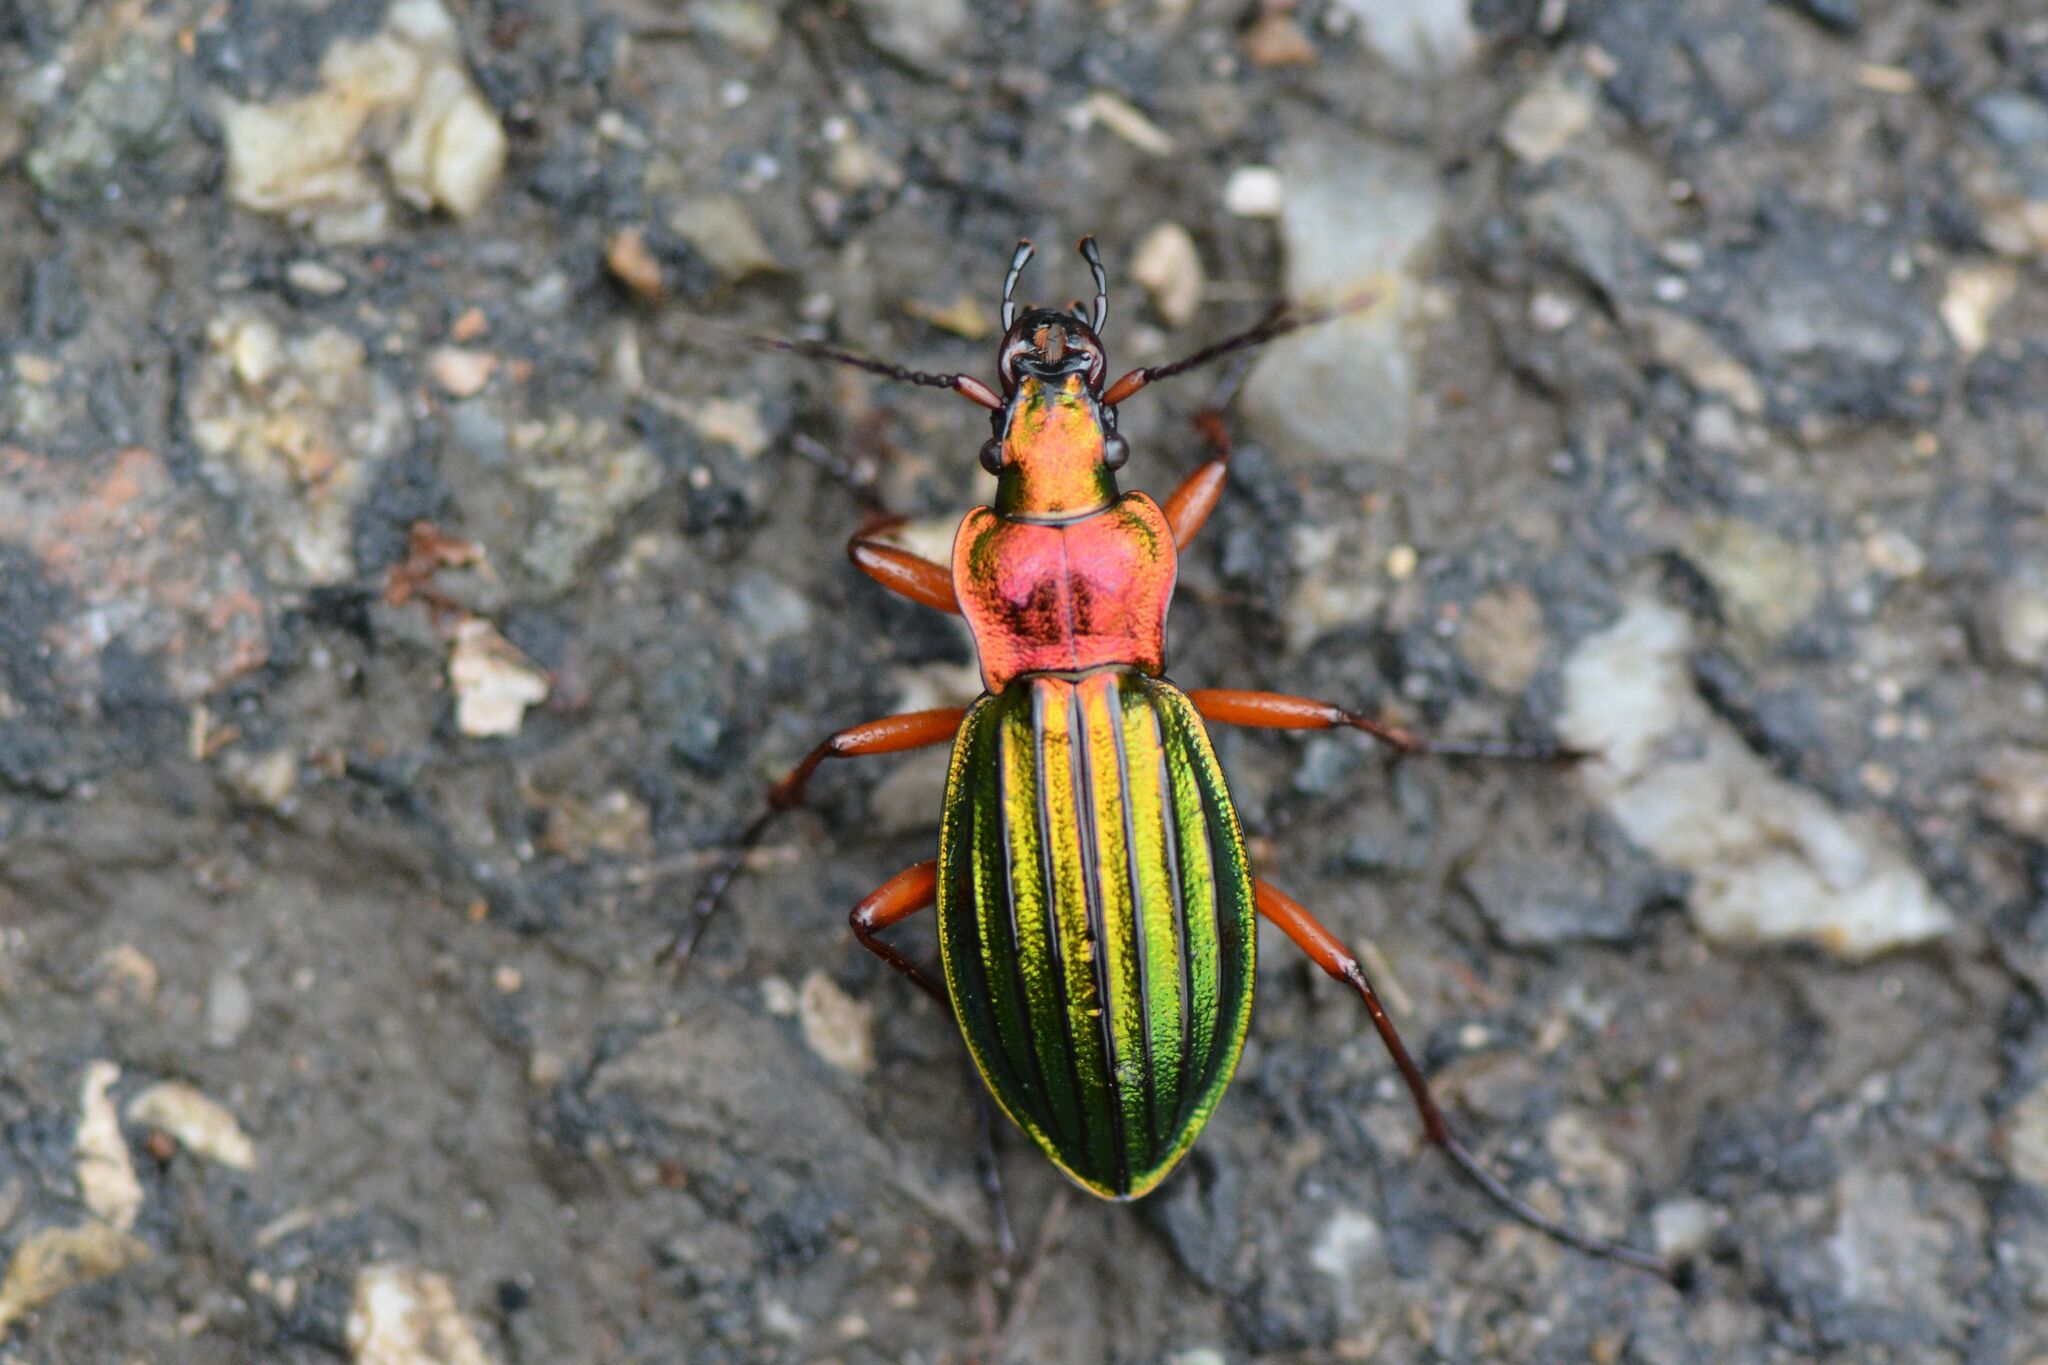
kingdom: Animalia
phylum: Arthropoda
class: Insecta
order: Coleoptera
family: Carabidae
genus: Carabus
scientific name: Carabus auronitens
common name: Carabus auronitens
